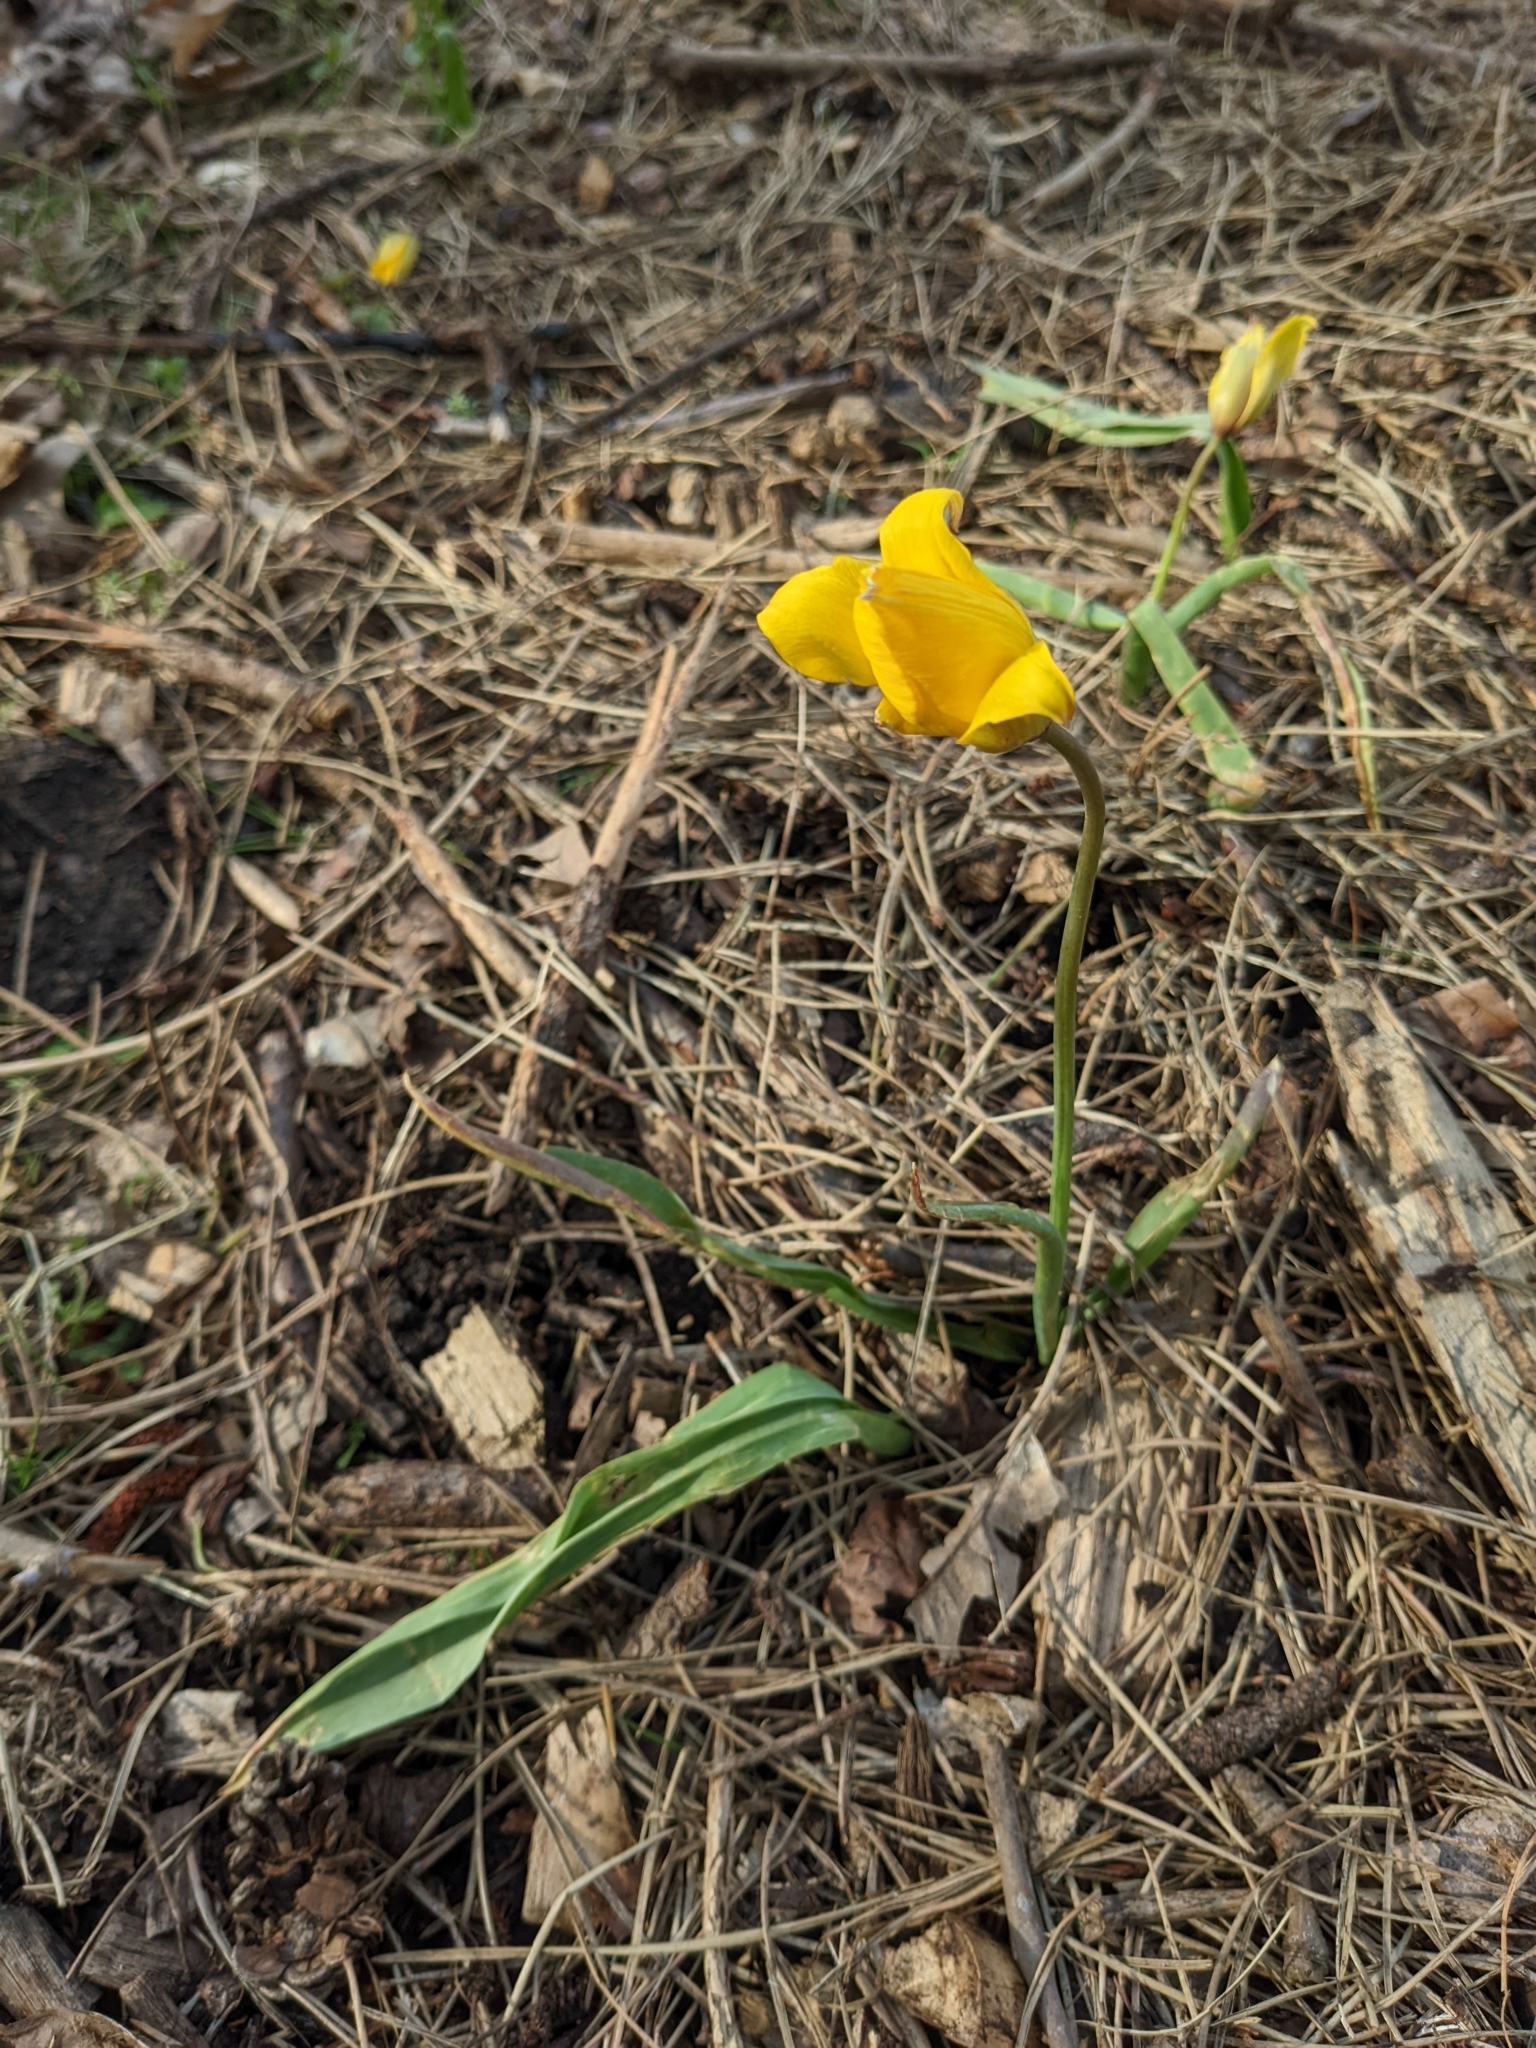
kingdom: Plantae
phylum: Tracheophyta
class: Liliopsida
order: Liliales
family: Liliaceae
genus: Tulipa
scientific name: Tulipa sylvestris
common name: Wild tulip
